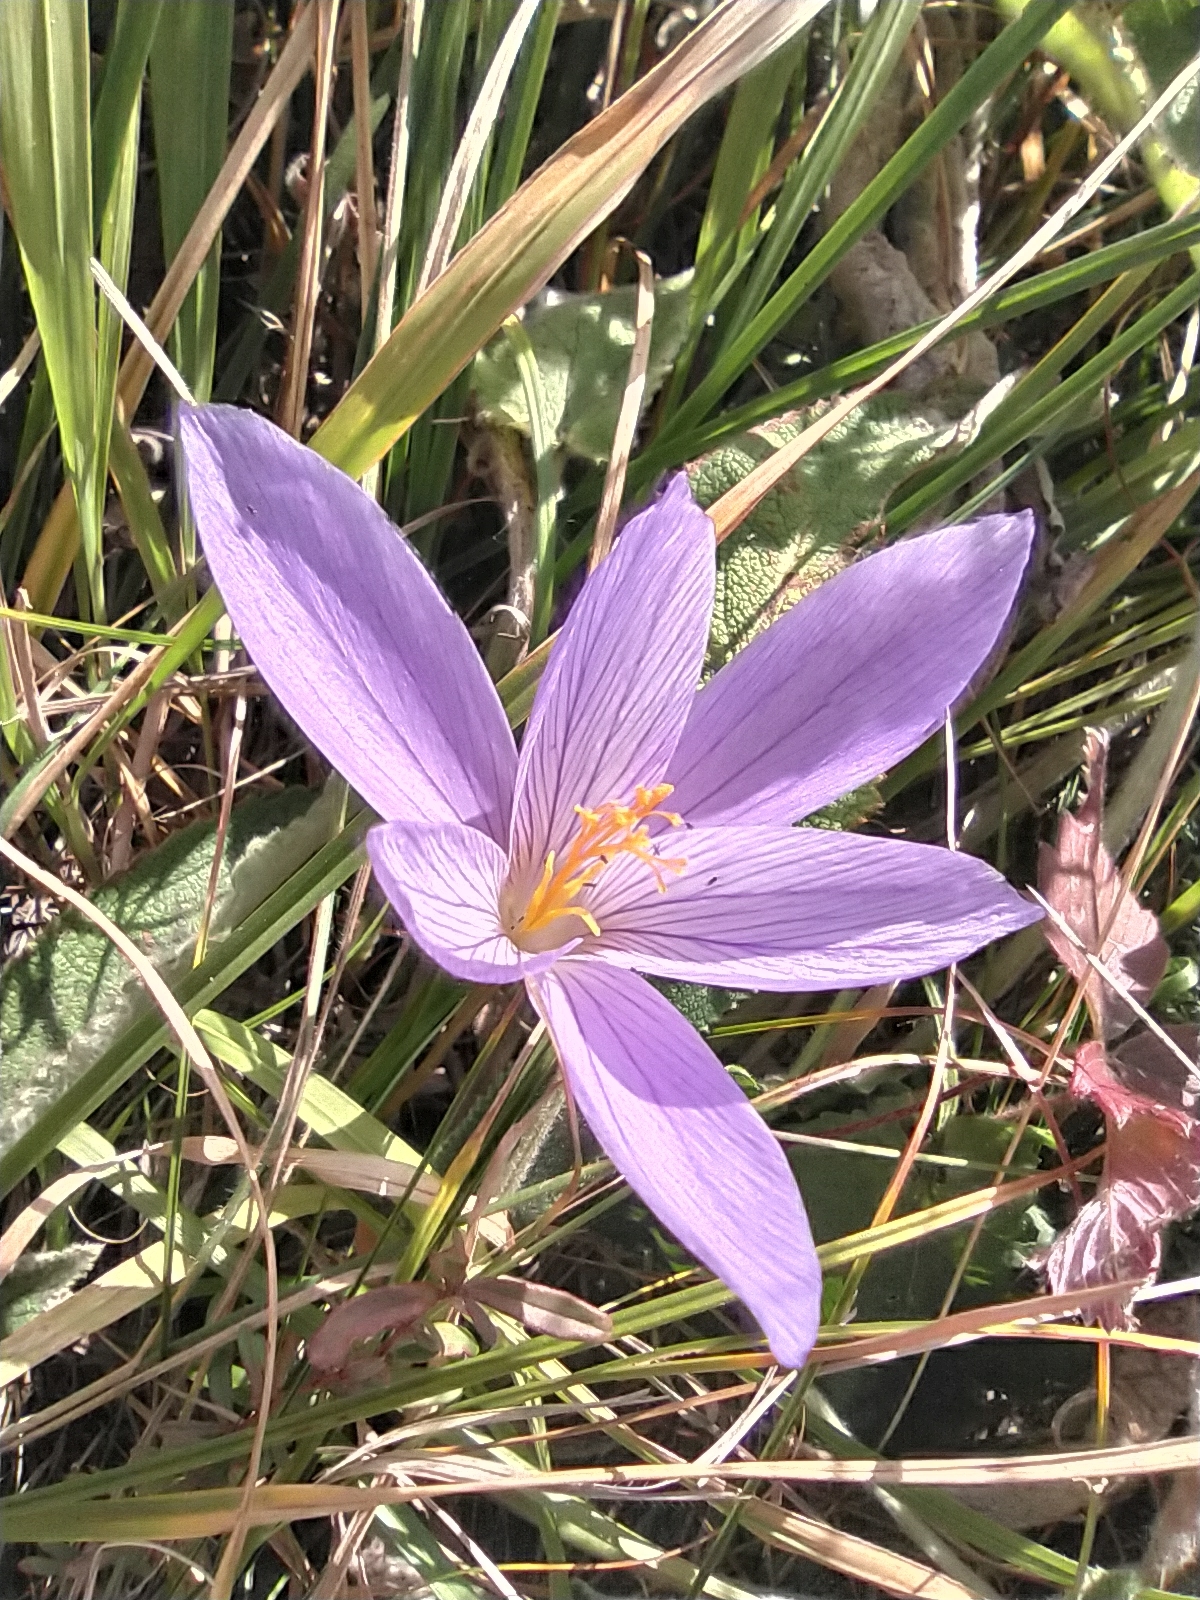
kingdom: Plantae
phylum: Tracheophyta
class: Liliopsida
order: Asparagales
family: Iridaceae
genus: Crocus
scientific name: Crocus speciosus
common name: Bieberstein's crocus
